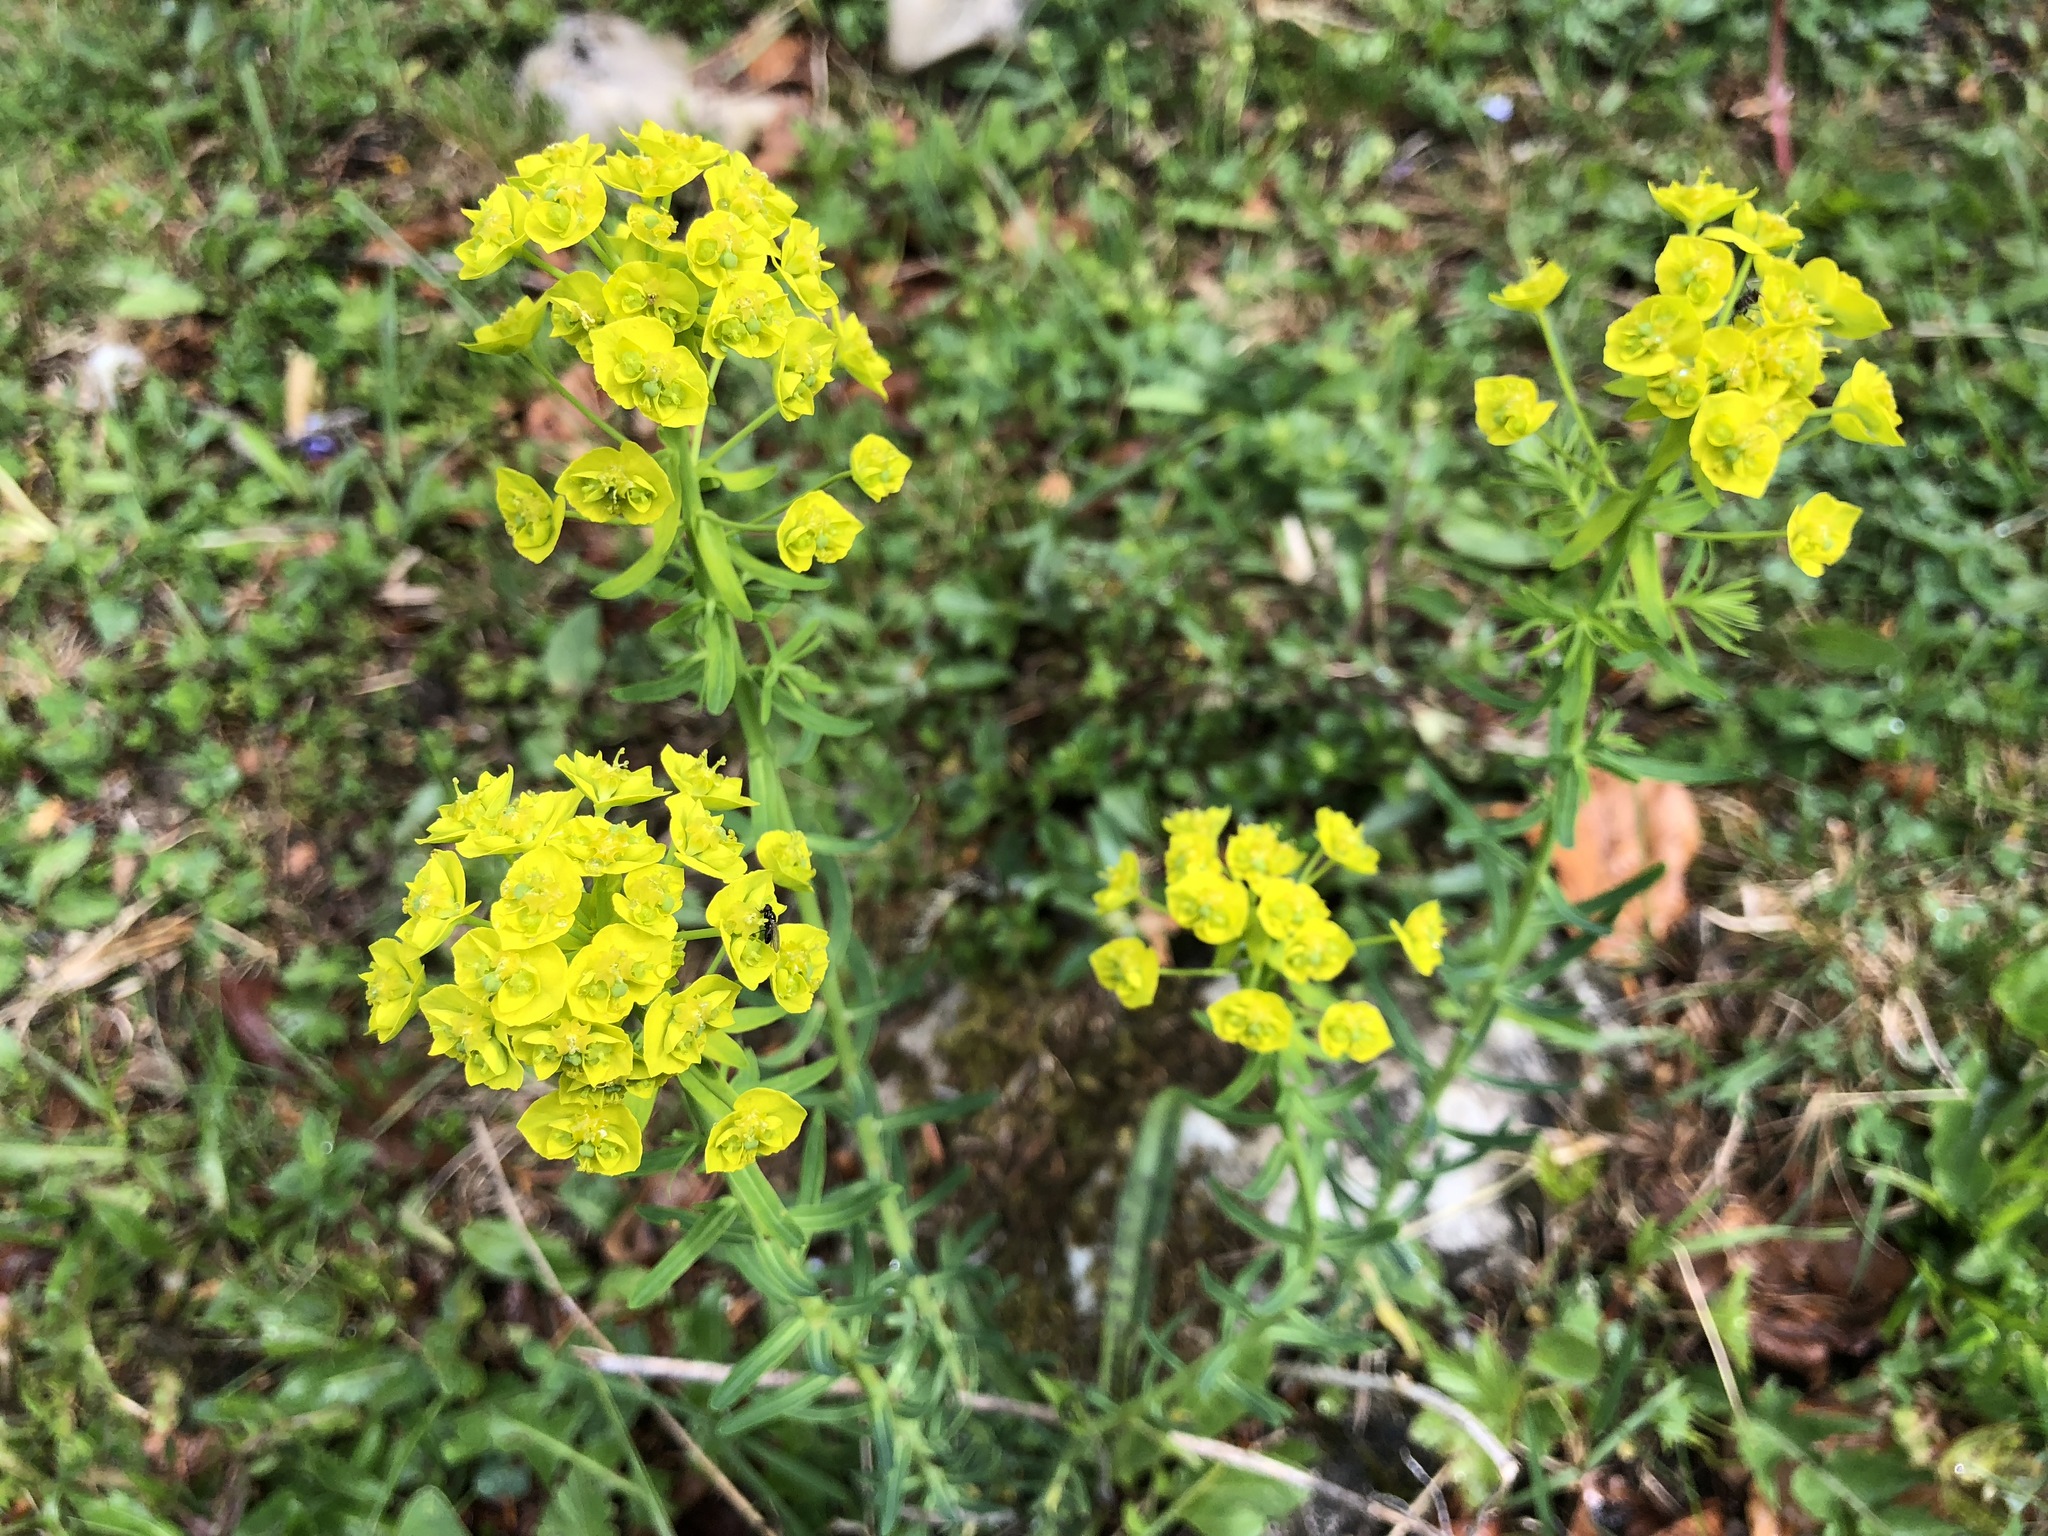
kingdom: Plantae
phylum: Tracheophyta
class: Magnoliopsida
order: Malpighiales
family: Euphorbiaceae
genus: Euphorbia
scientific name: Euphorbia cyparissias
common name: Cypress spurge
